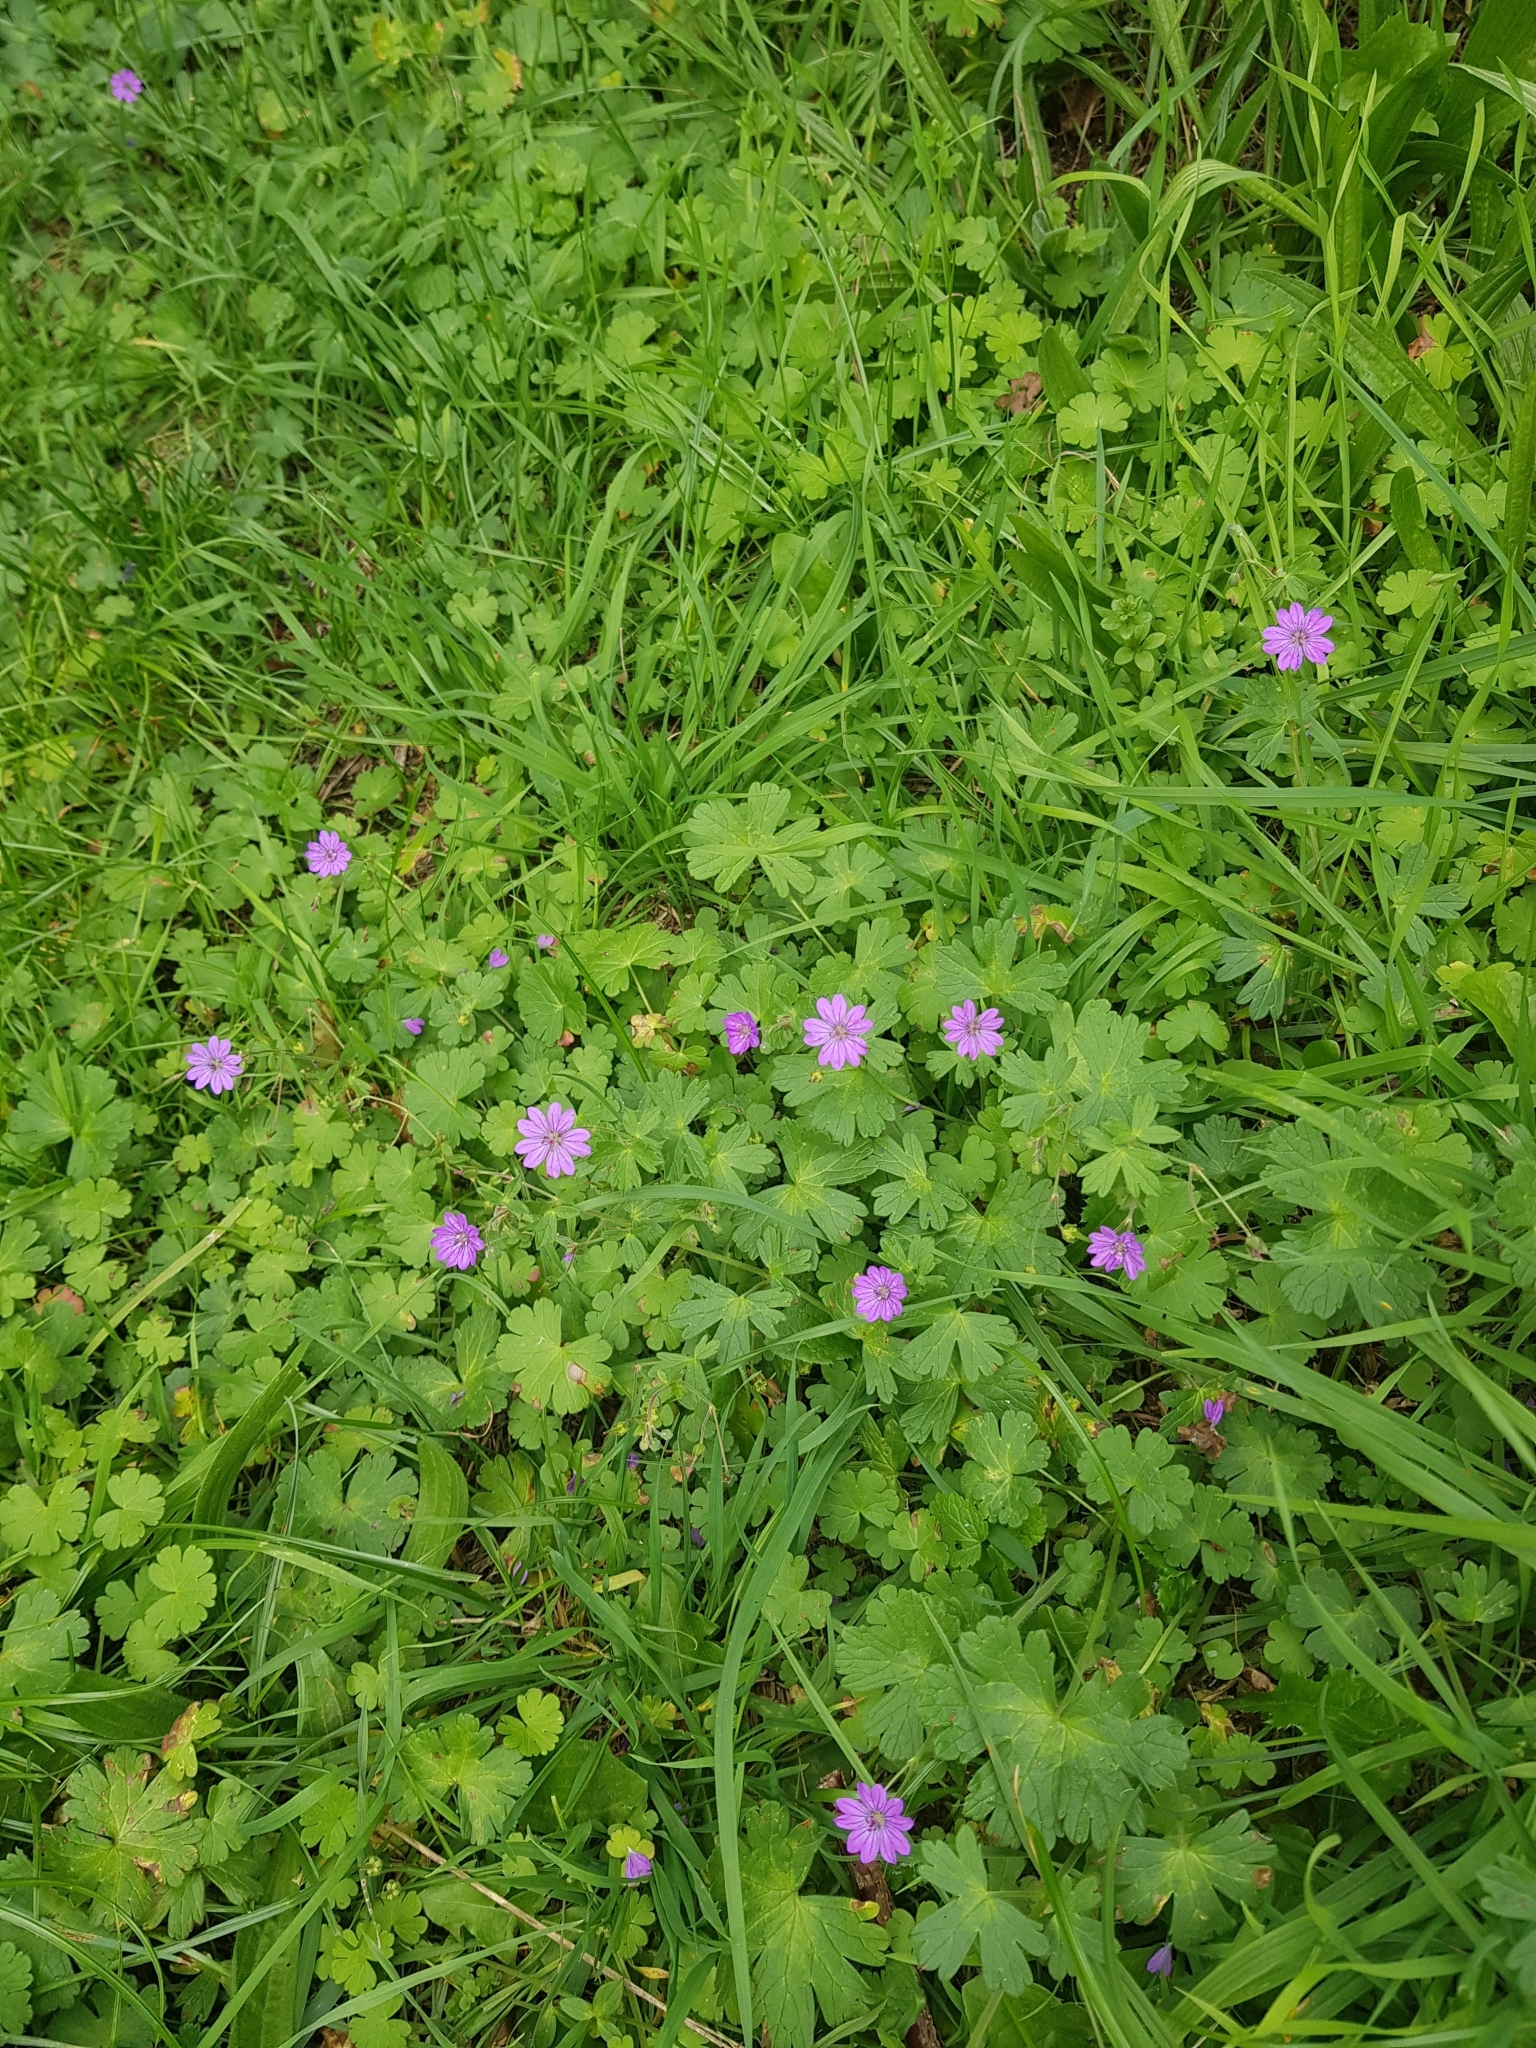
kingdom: Plantae
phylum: Tracheophyta
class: Magnoliopsida
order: Geraniales
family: Geraniaceae
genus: Geranium
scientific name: Geranium pyrenaicum
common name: Hedgerow crane's-bill
